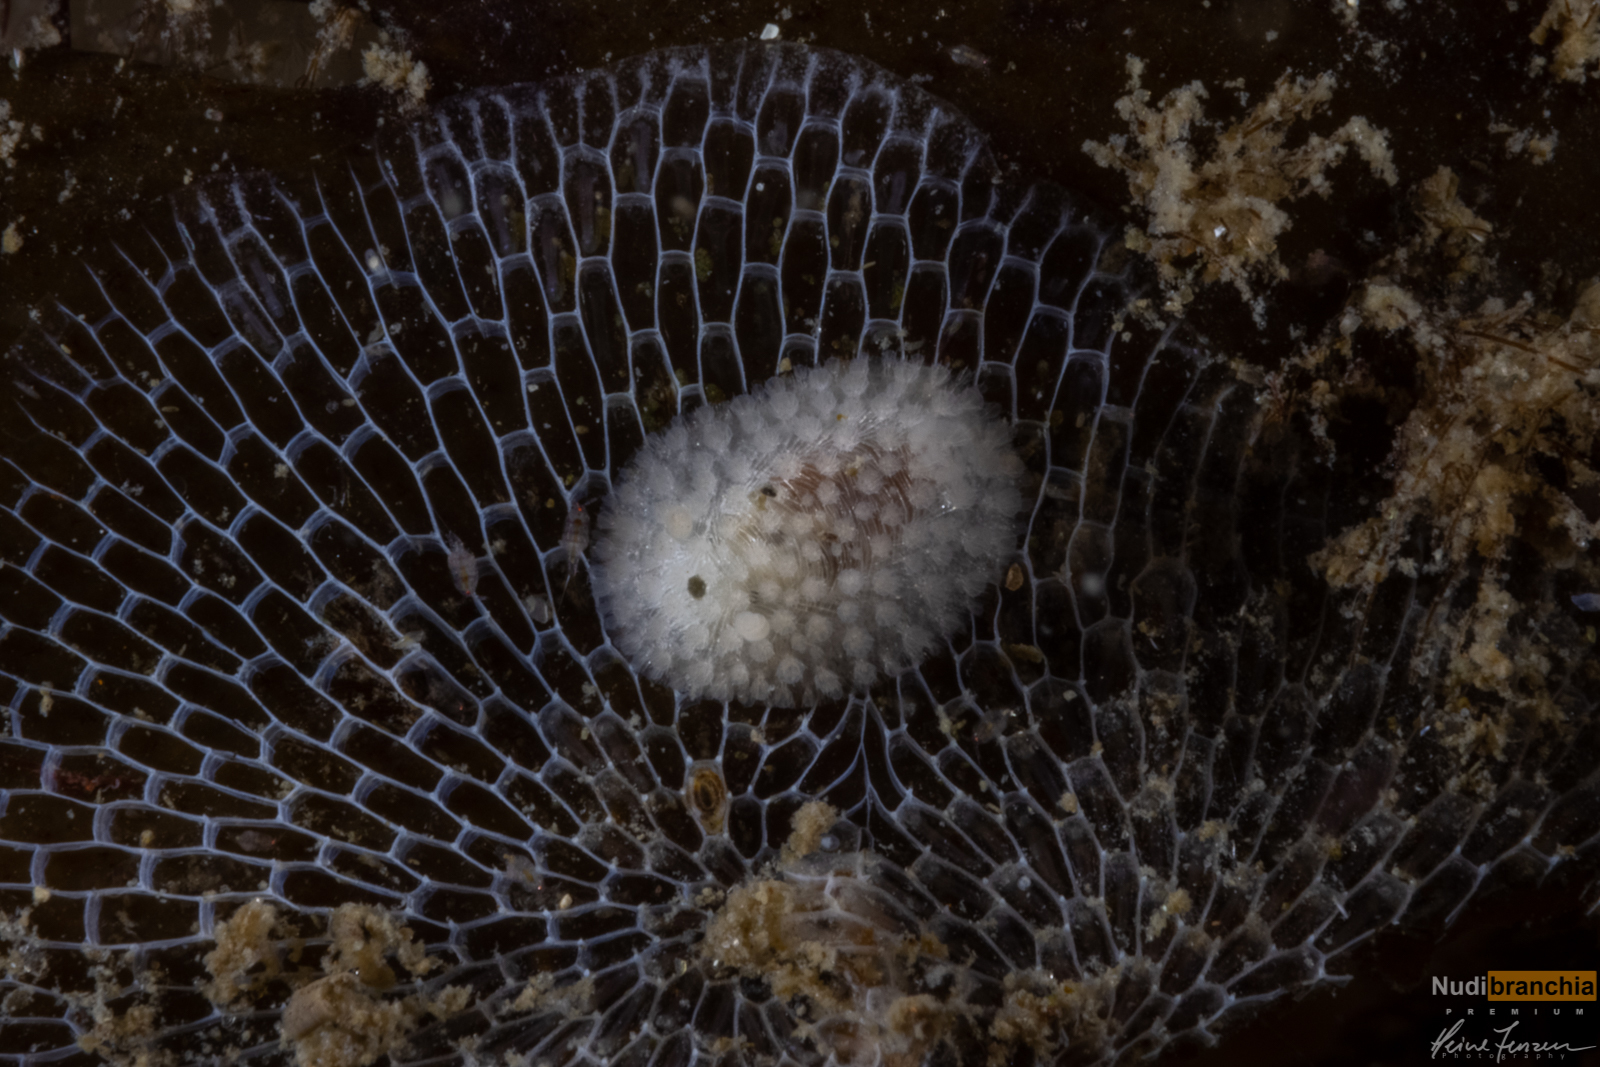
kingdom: Animalia
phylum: Mollusca
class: Gastropoda
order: Nudibranchia
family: Onchidorididae
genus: Onchidoris
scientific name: Onchidoris muricata
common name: Rough doris
